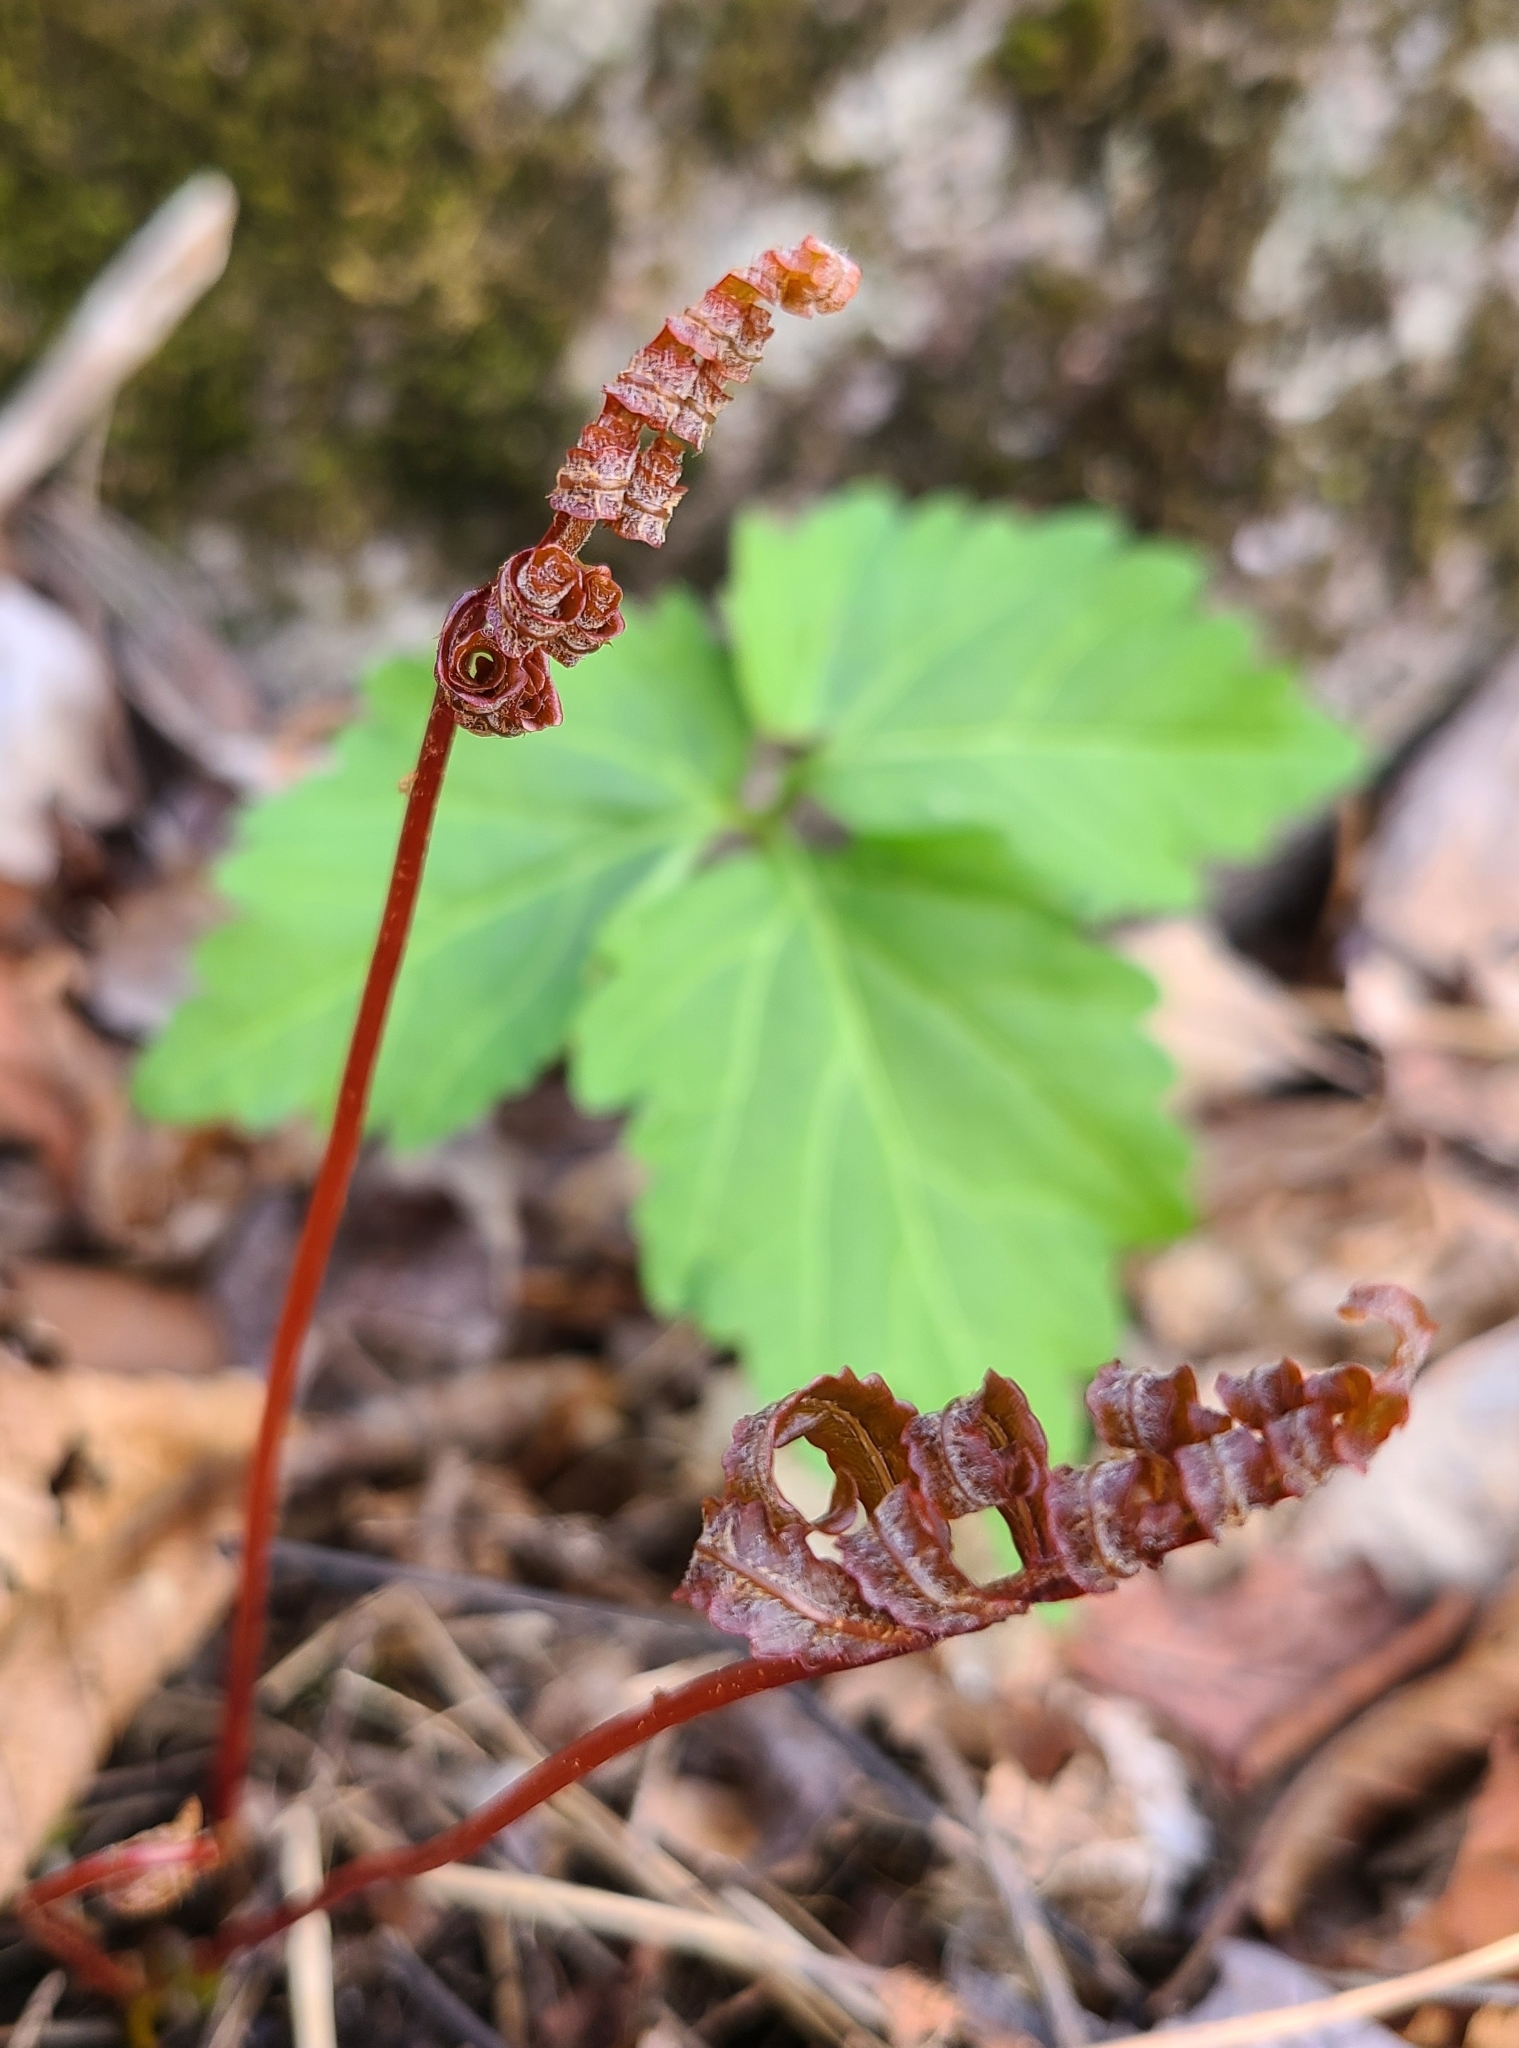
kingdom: Plantae
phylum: Tracheophyta
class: Polypodiopsida
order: Polypodiales
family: Onocleaceae
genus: Onoclea
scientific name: Onoclea sensibilis
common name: Sensitive fern
